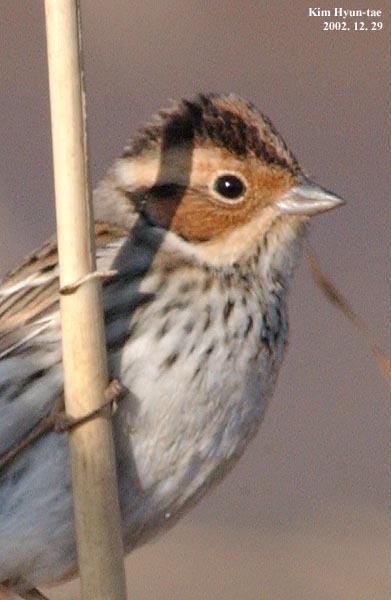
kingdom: Animalia
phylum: Chordata
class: Aves
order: Passeriformes
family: Emberizidae
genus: Emberiza
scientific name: Emberiza pusilla
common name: Little bunting
